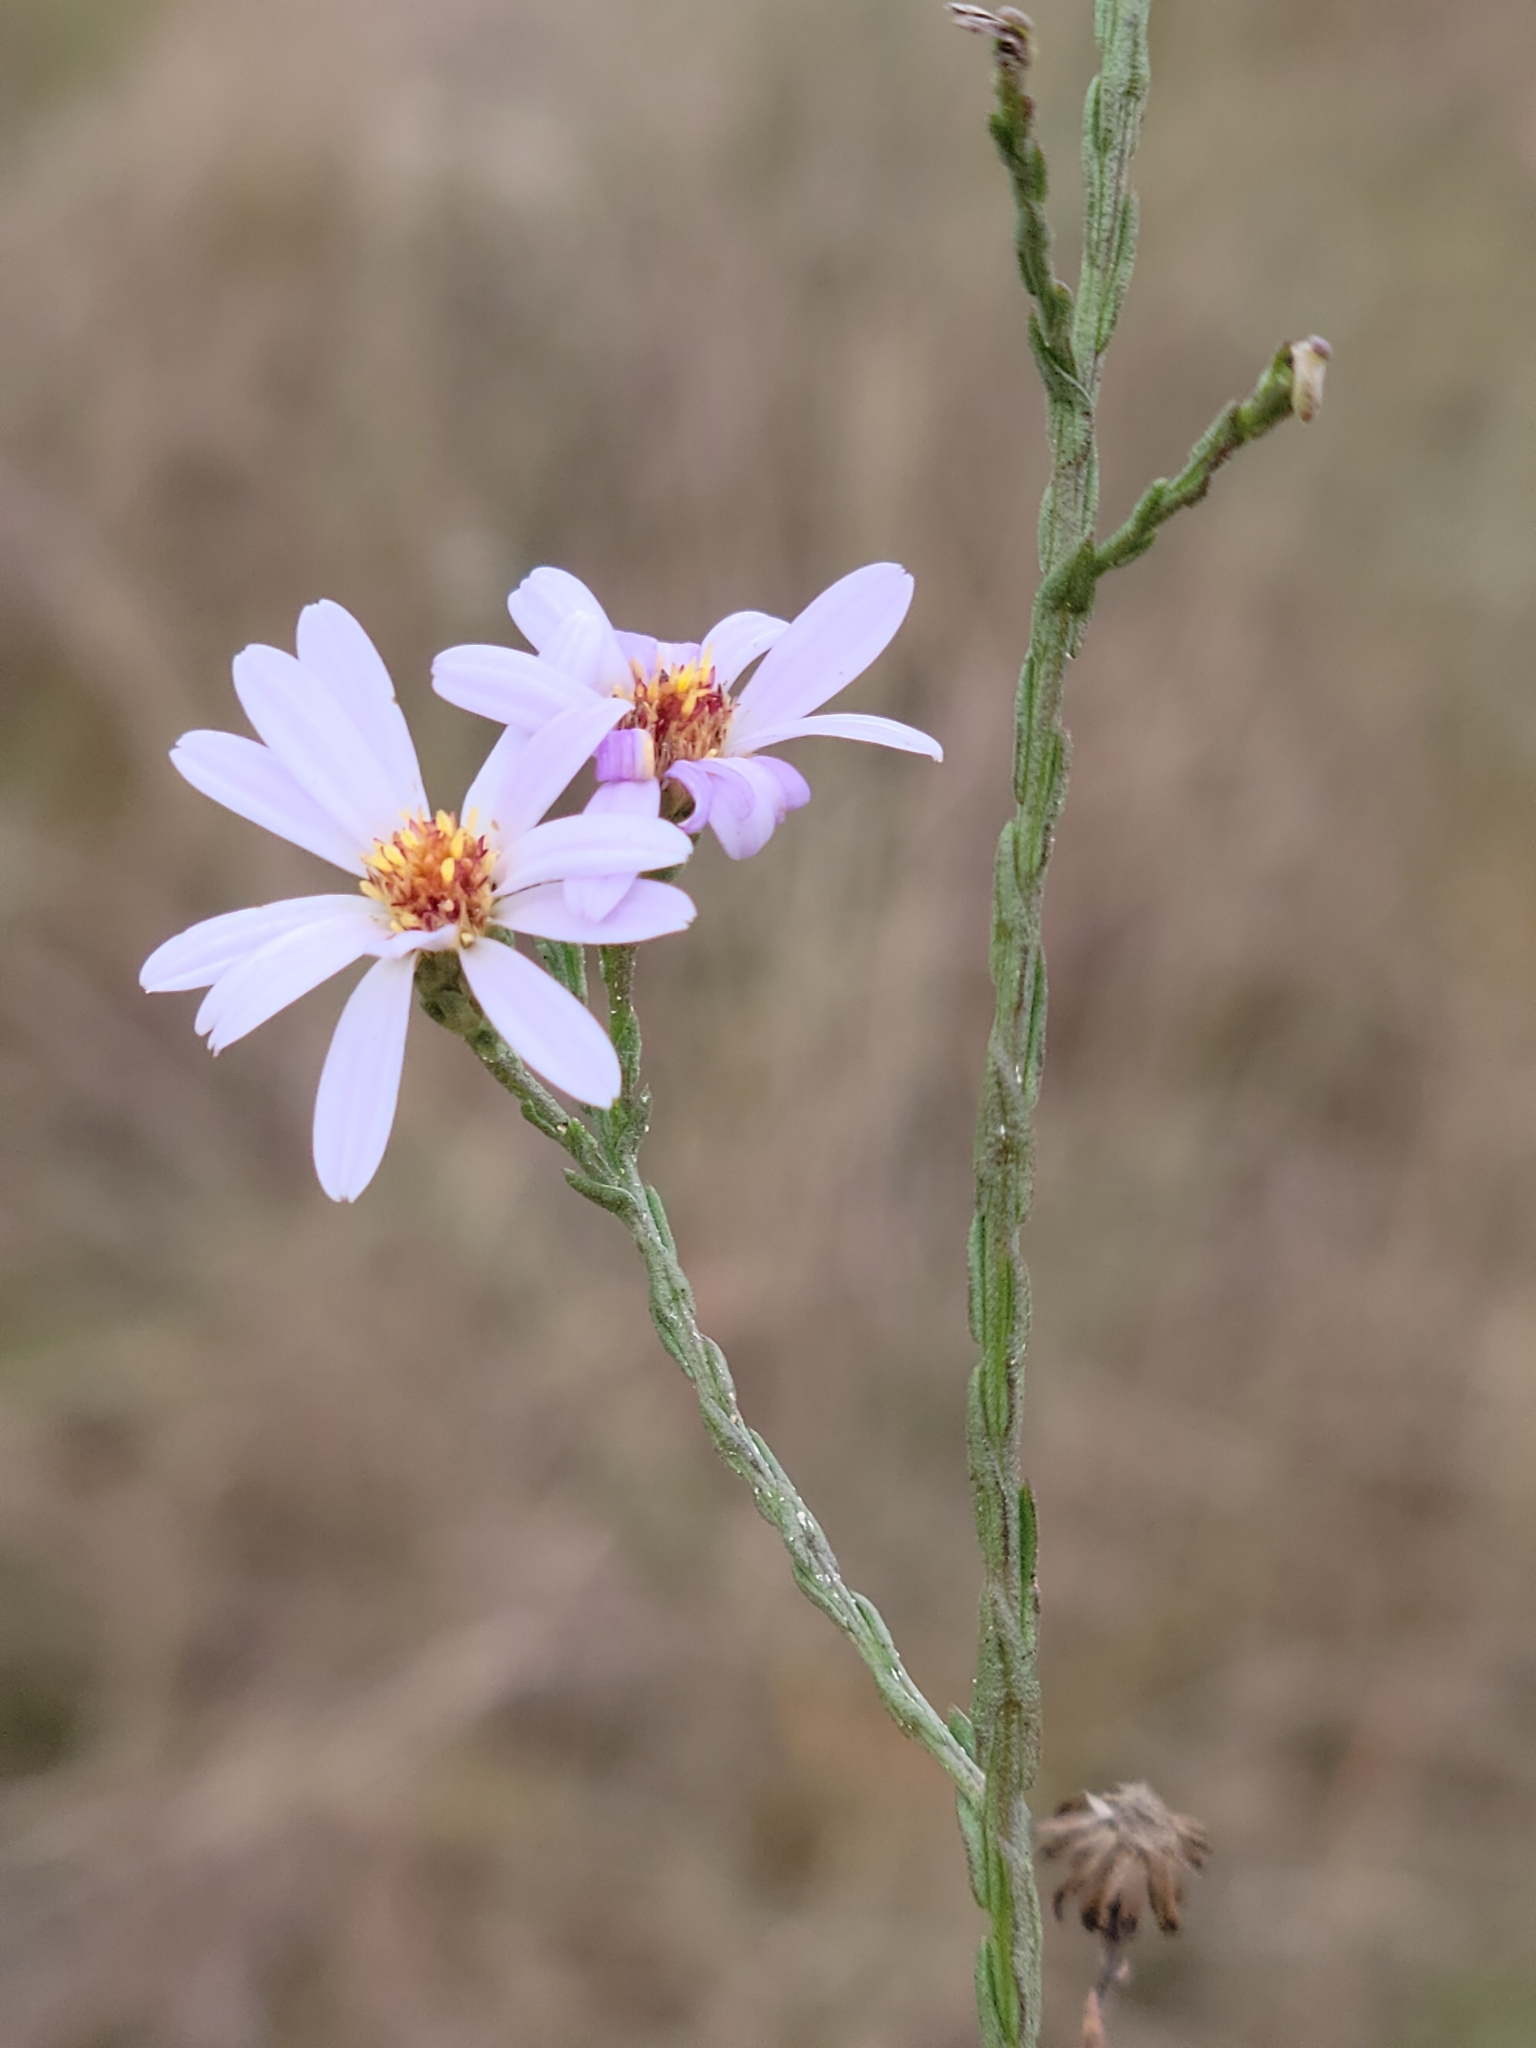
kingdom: Plantae
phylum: Tracheophyta
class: Magnoliopsida
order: Asterales
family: Asteraceae
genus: Symphyotrichum
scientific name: Symphyotrichum adnatum
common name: Scale-leaf aster
